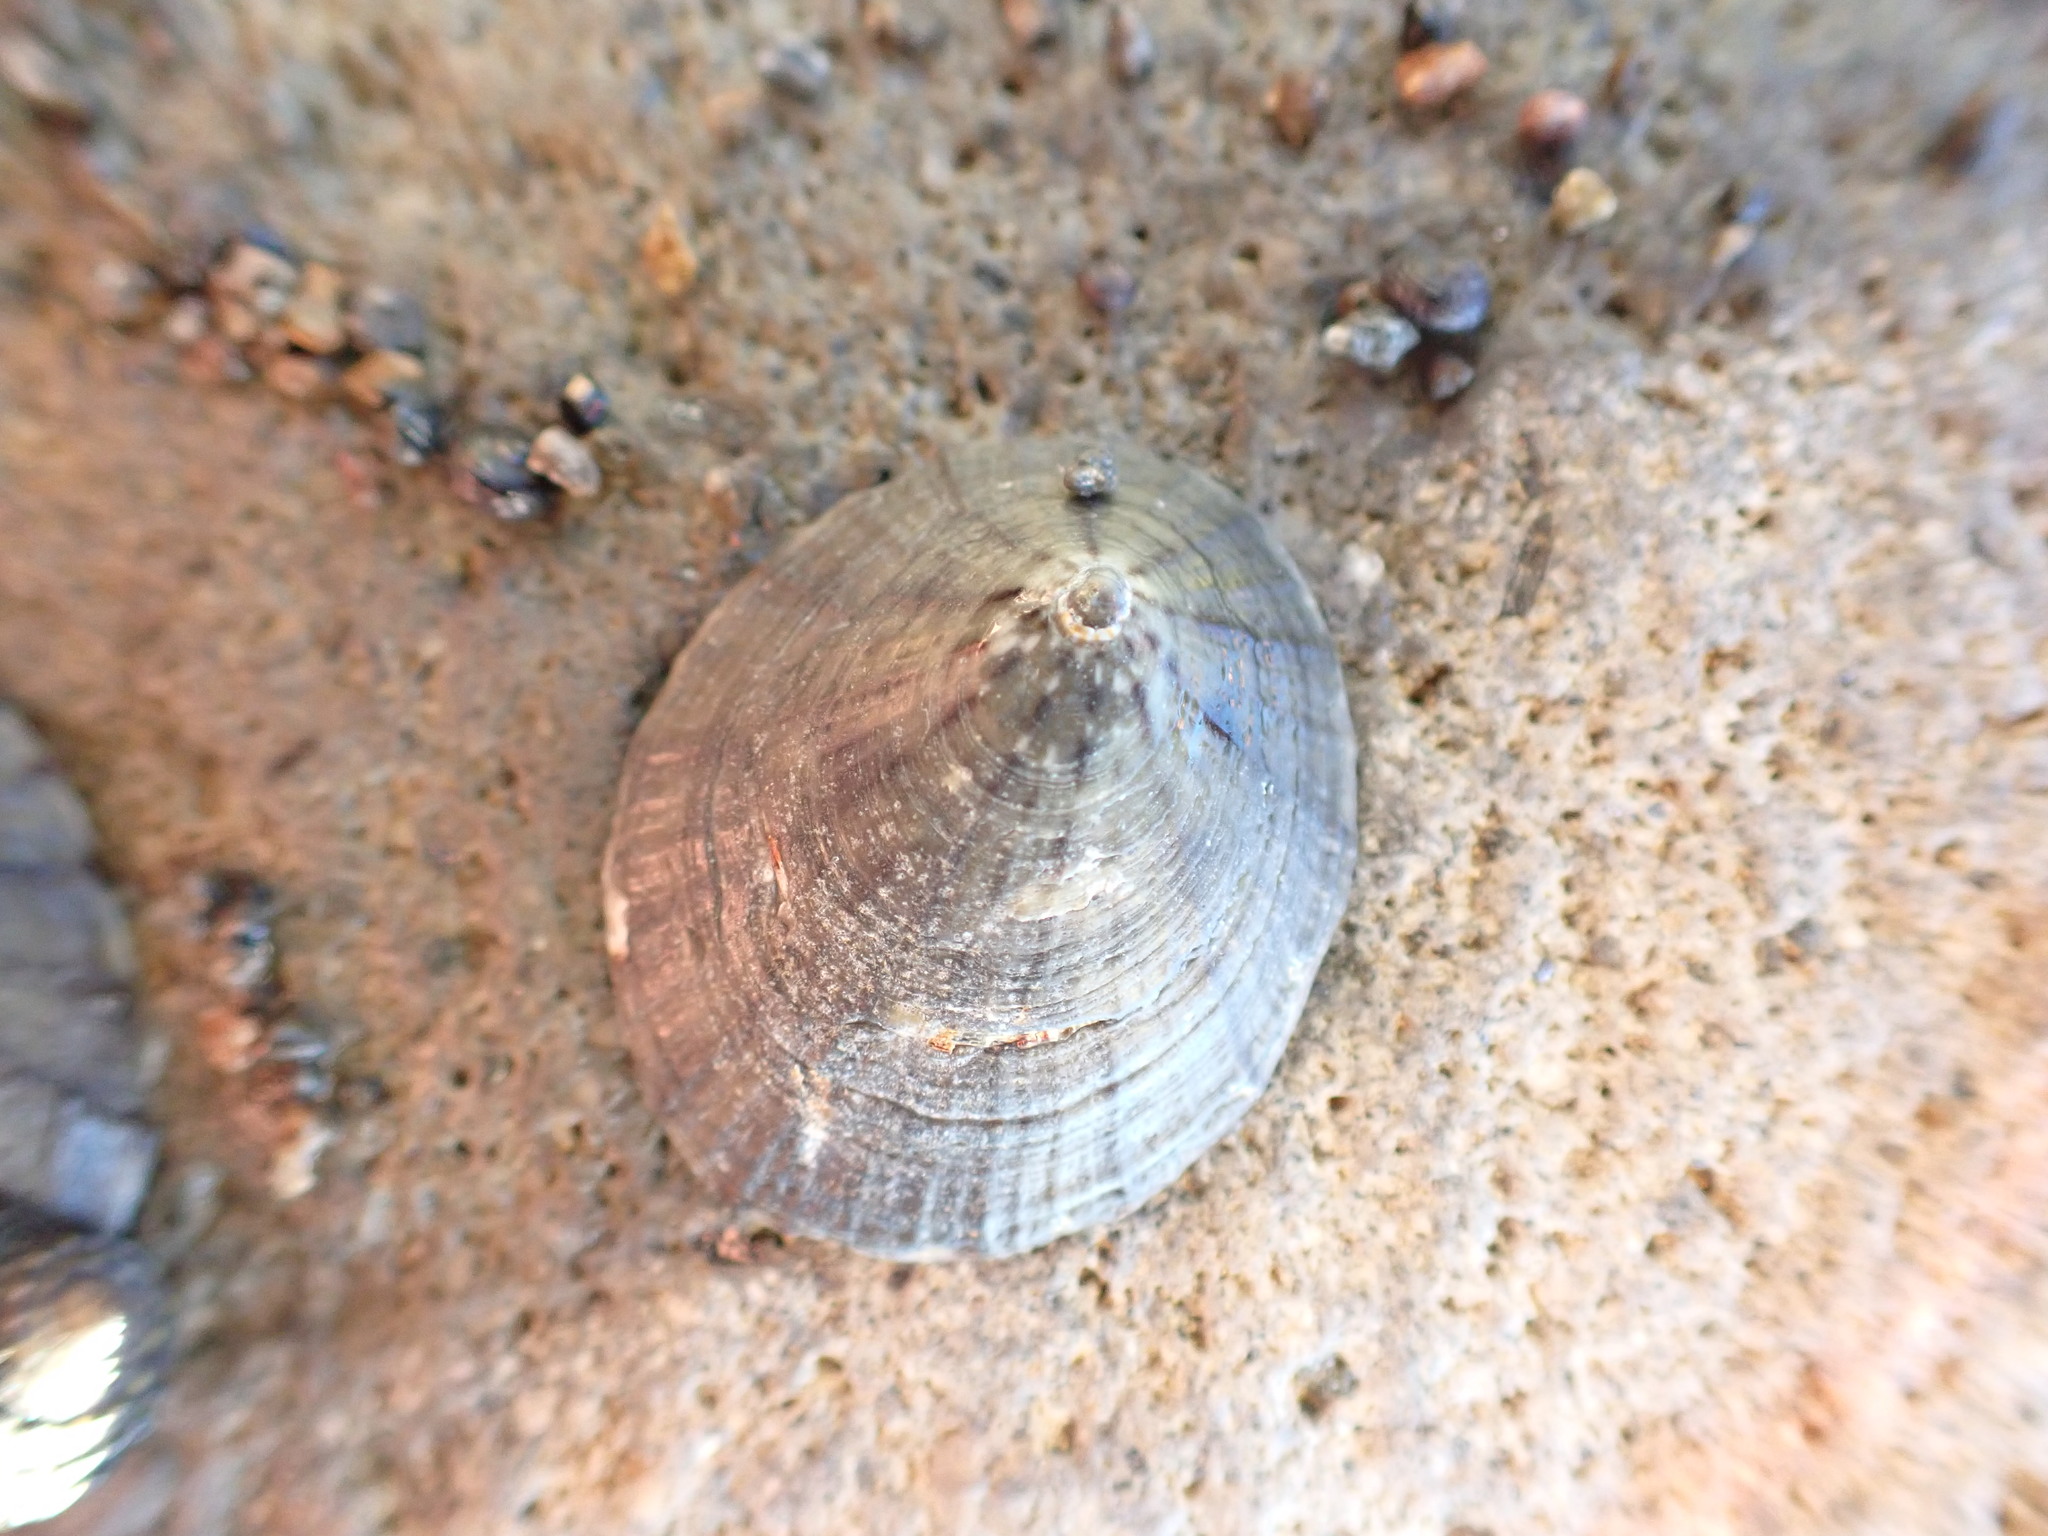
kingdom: Animalia
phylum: Mollusca
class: Gastropoda
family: Nacellidae
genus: Cellana
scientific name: Cellana radians
